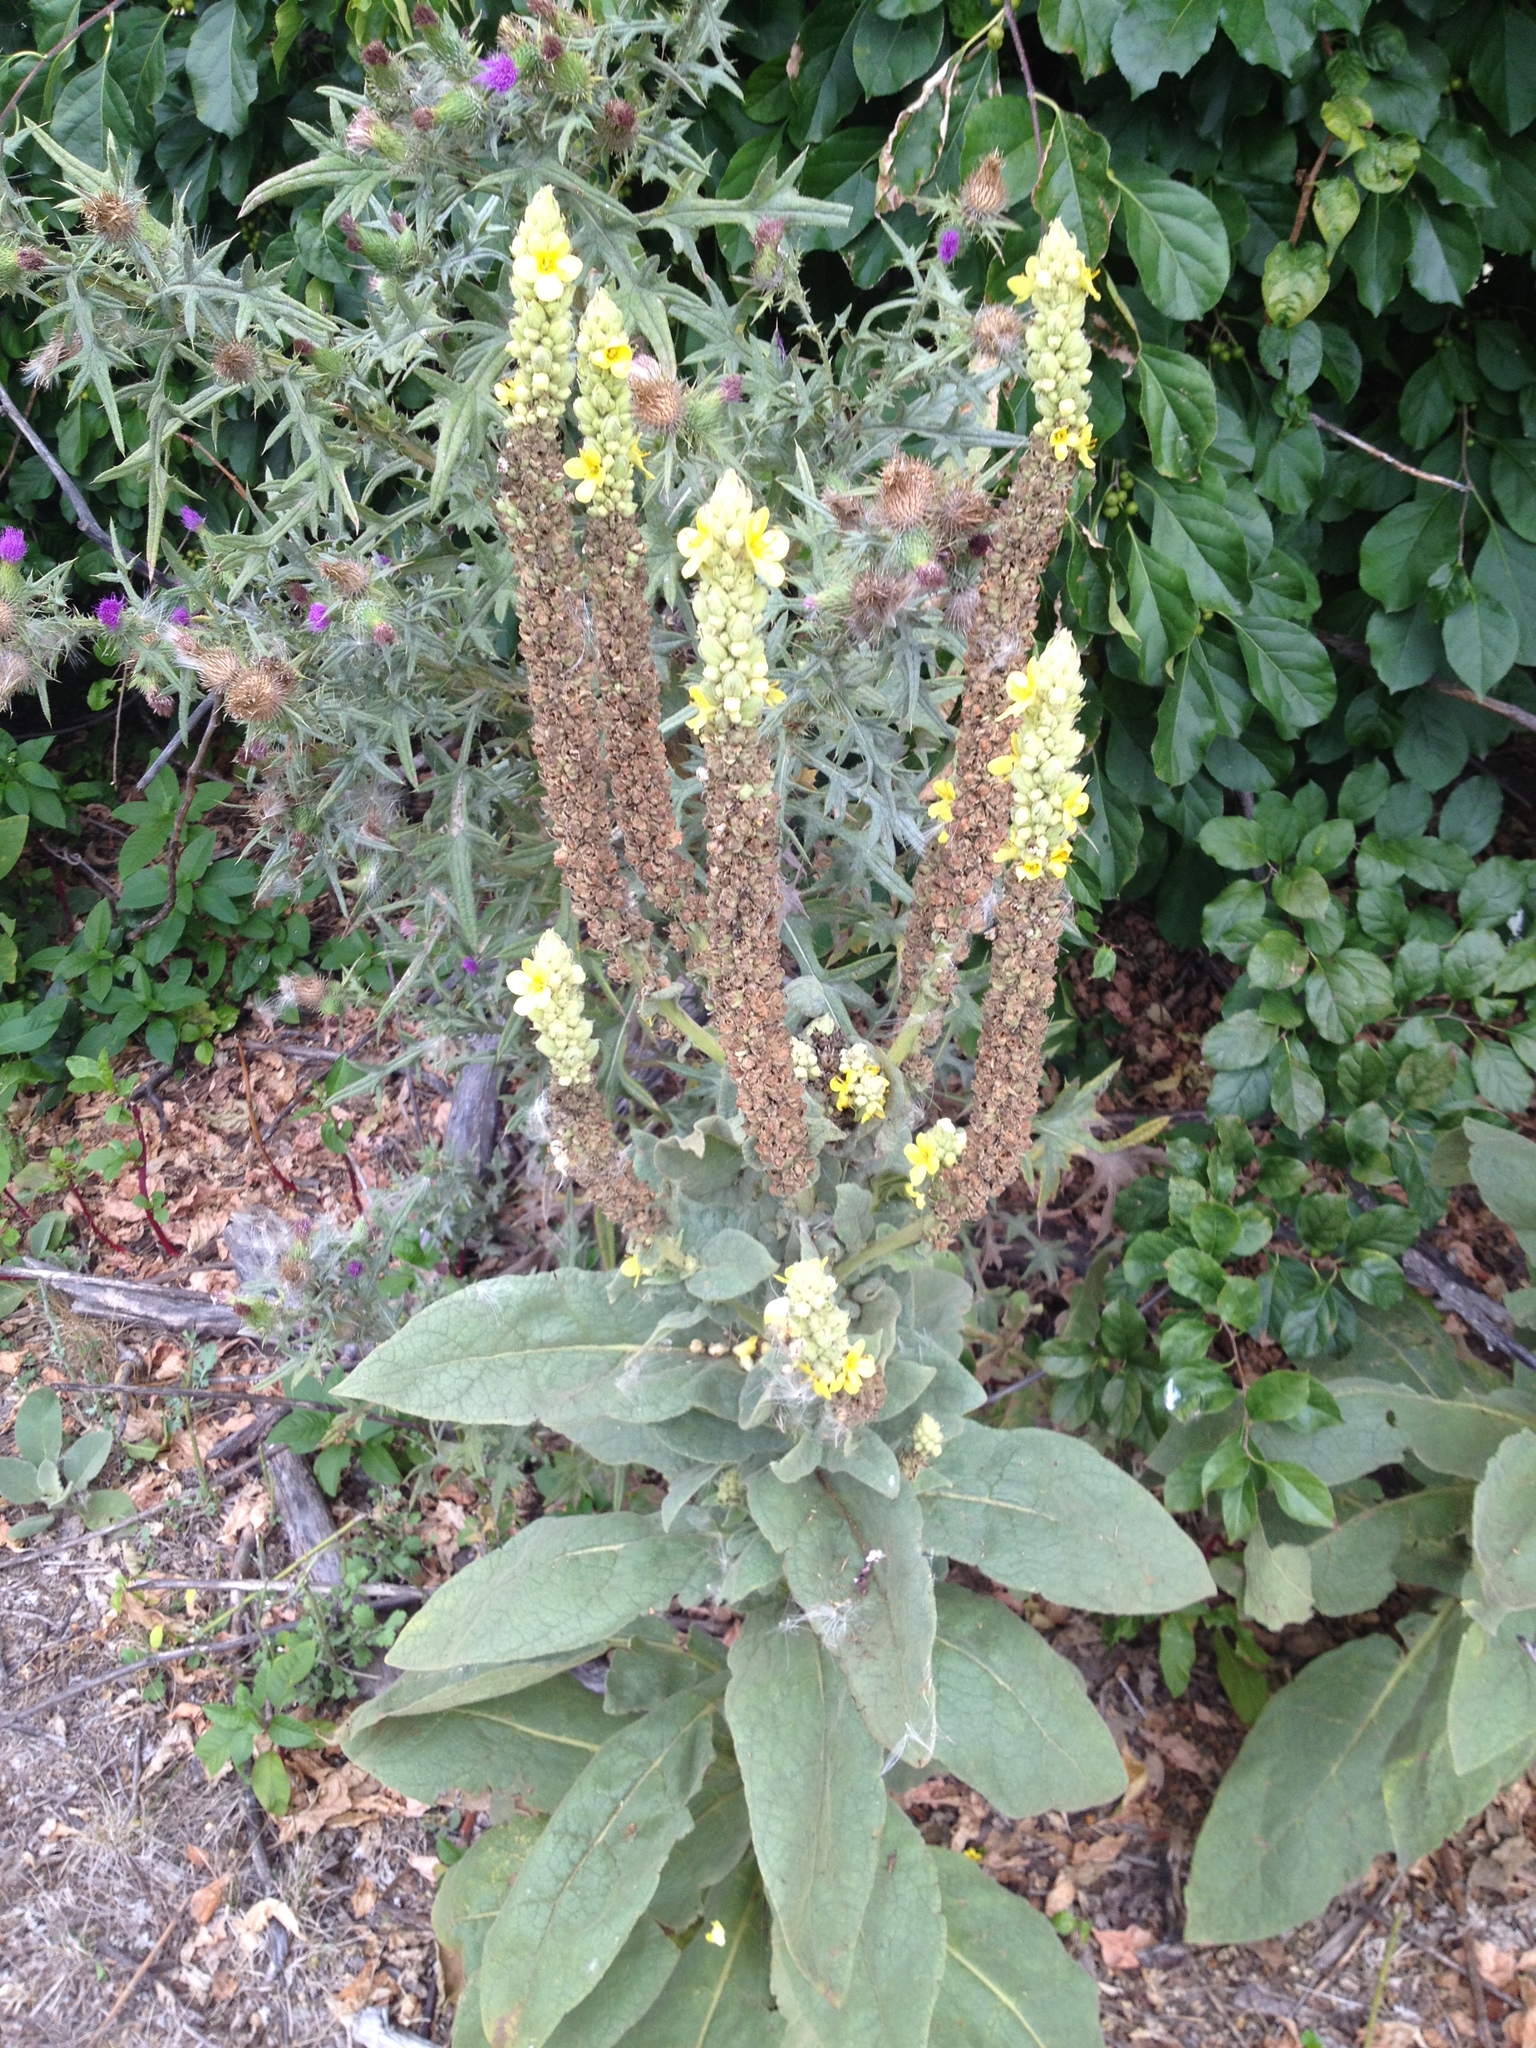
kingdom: Plantae
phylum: Tracheophyta
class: Magnoliopsida
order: Lamiales
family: Scrophulariaceae
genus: Verbascum
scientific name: Verbascum thapsus
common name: Common mullein
